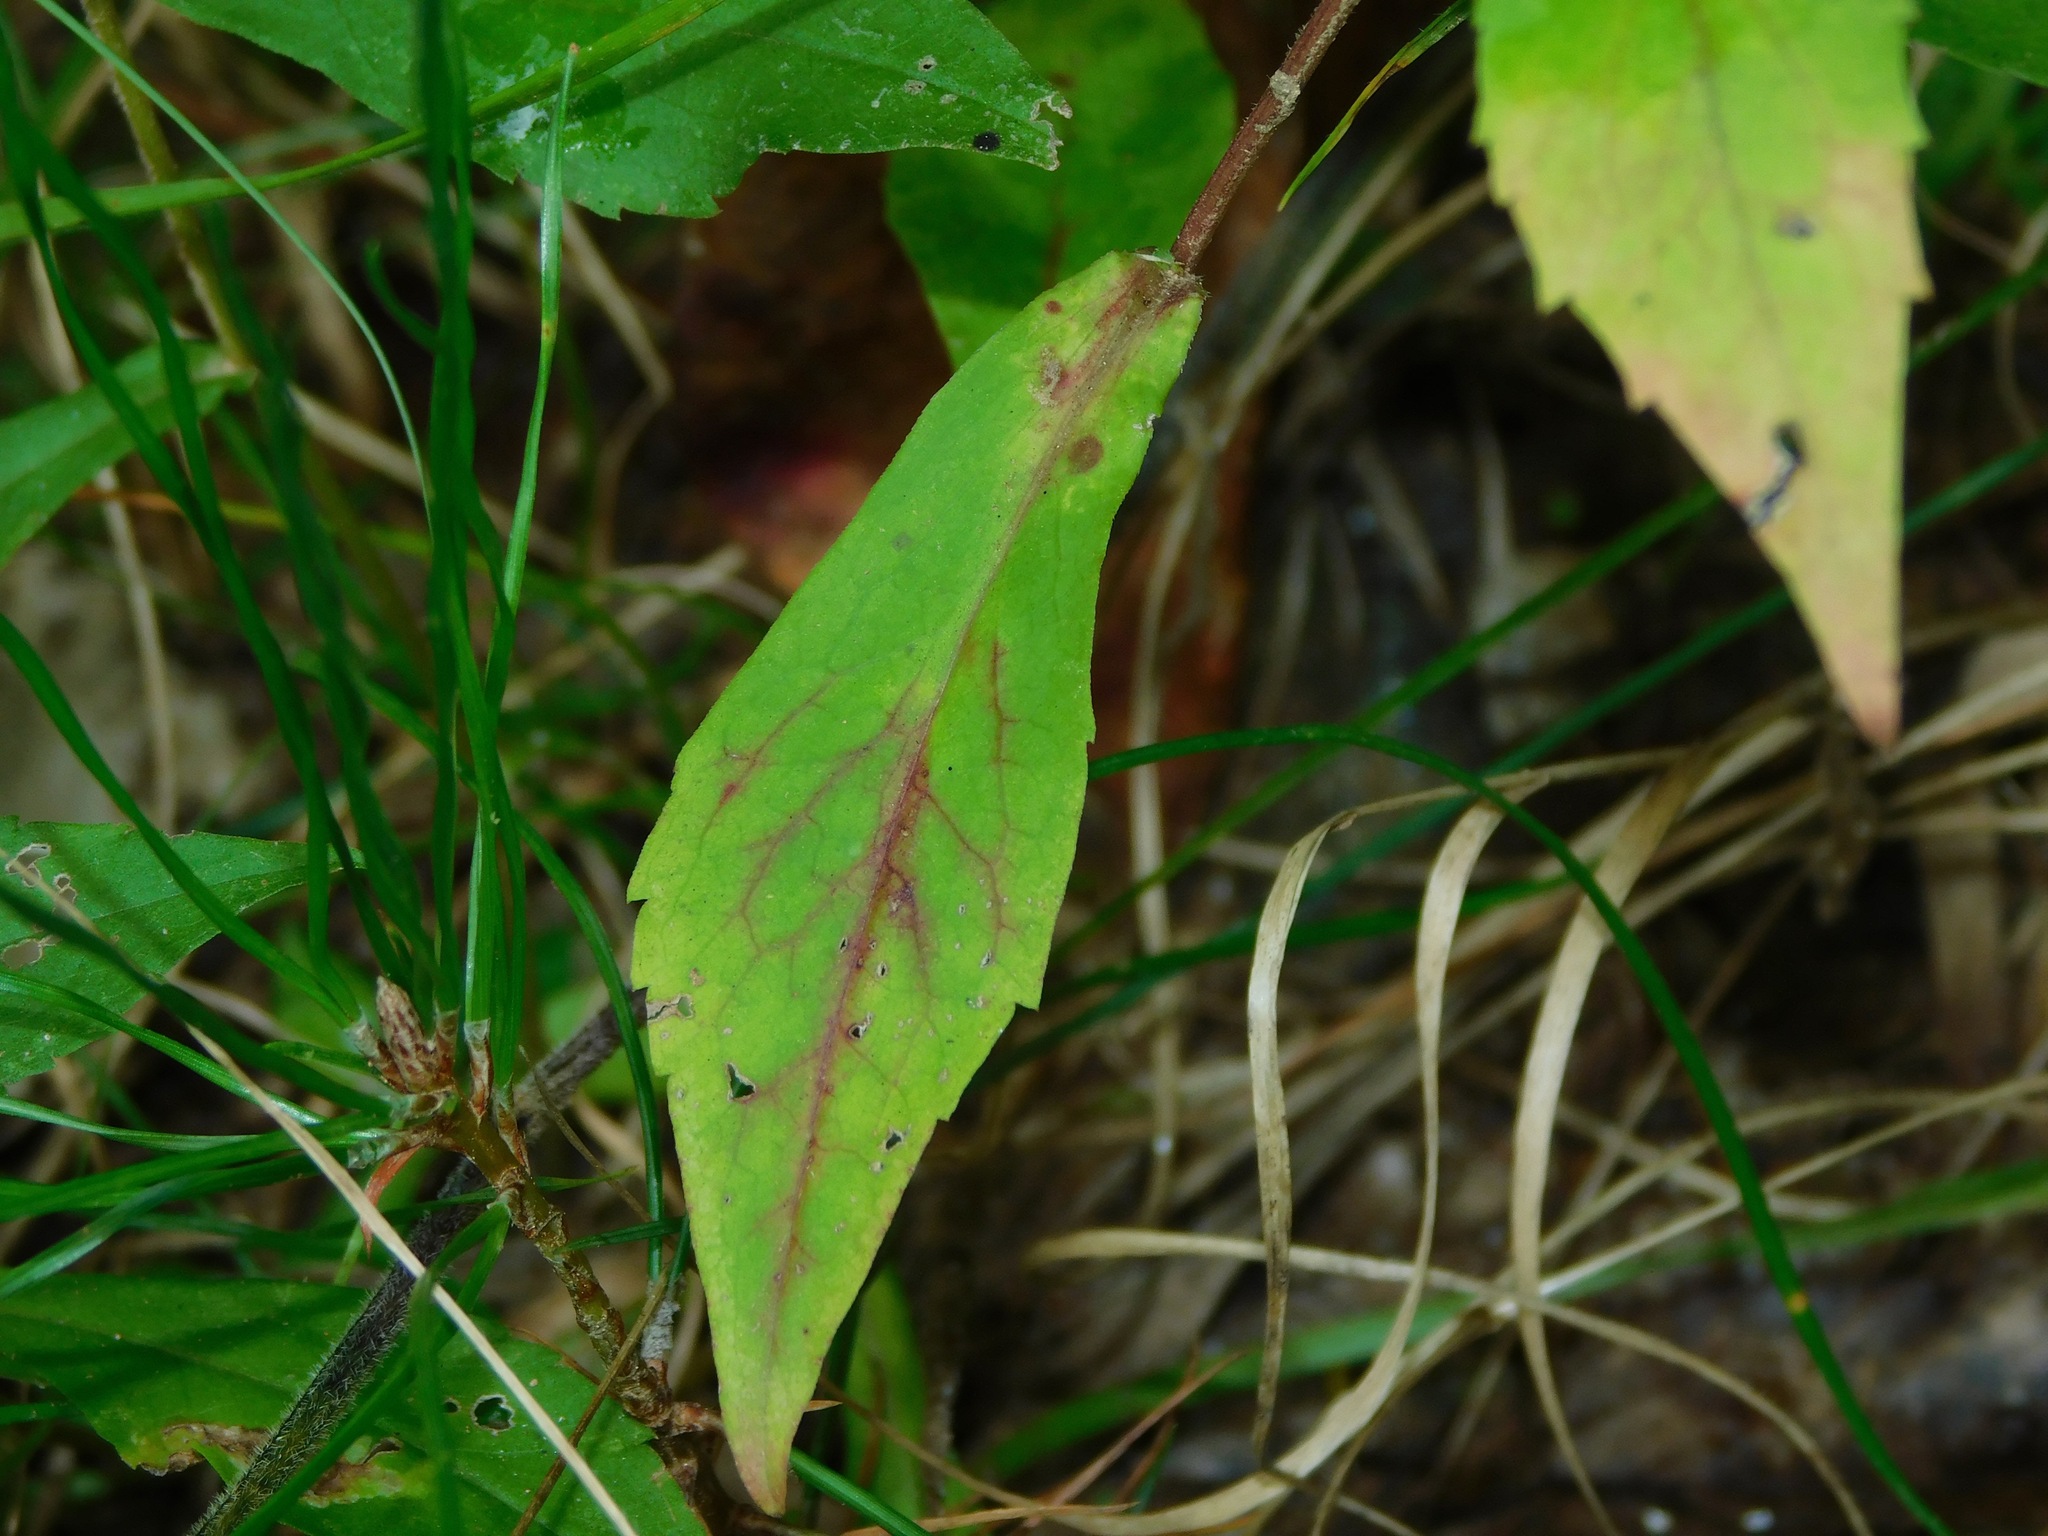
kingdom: Plantae
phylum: Tracheophyta
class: Magnoliopsida
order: Asterales
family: Asteraceae
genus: Symphyotrichum
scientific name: Symphyotrichum lateriflorum
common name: Calico aster
